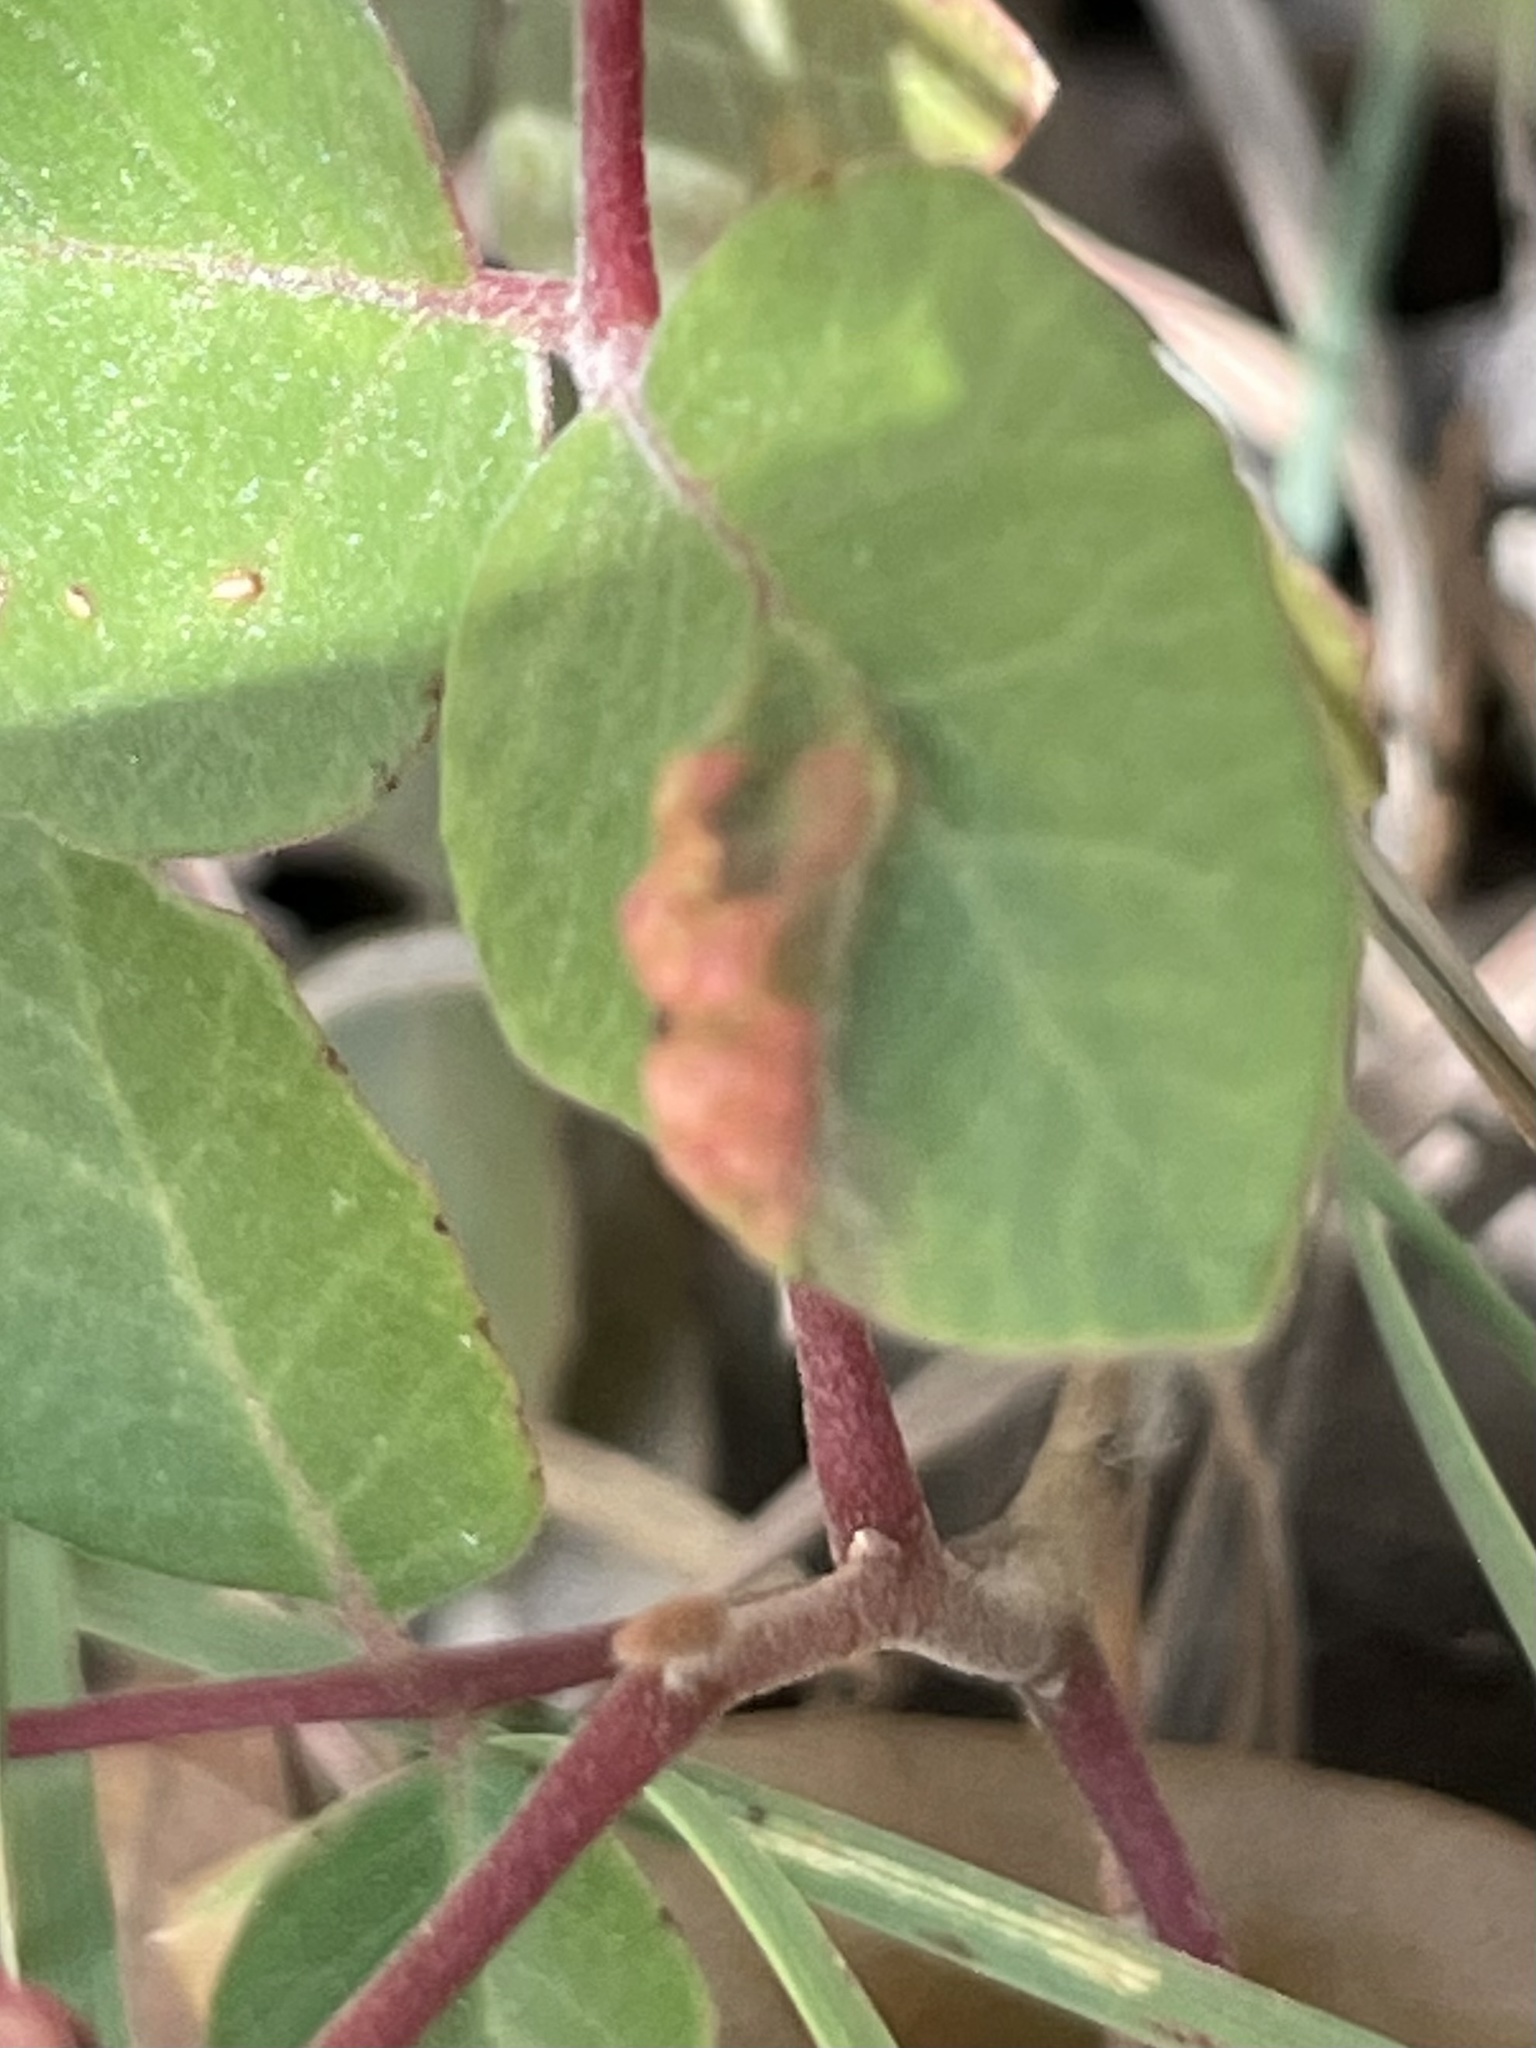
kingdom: Animalia
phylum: Arthropoda
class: Arachnida
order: Trombidiformes
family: Eriophyidae
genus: Aculops
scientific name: Aculops
